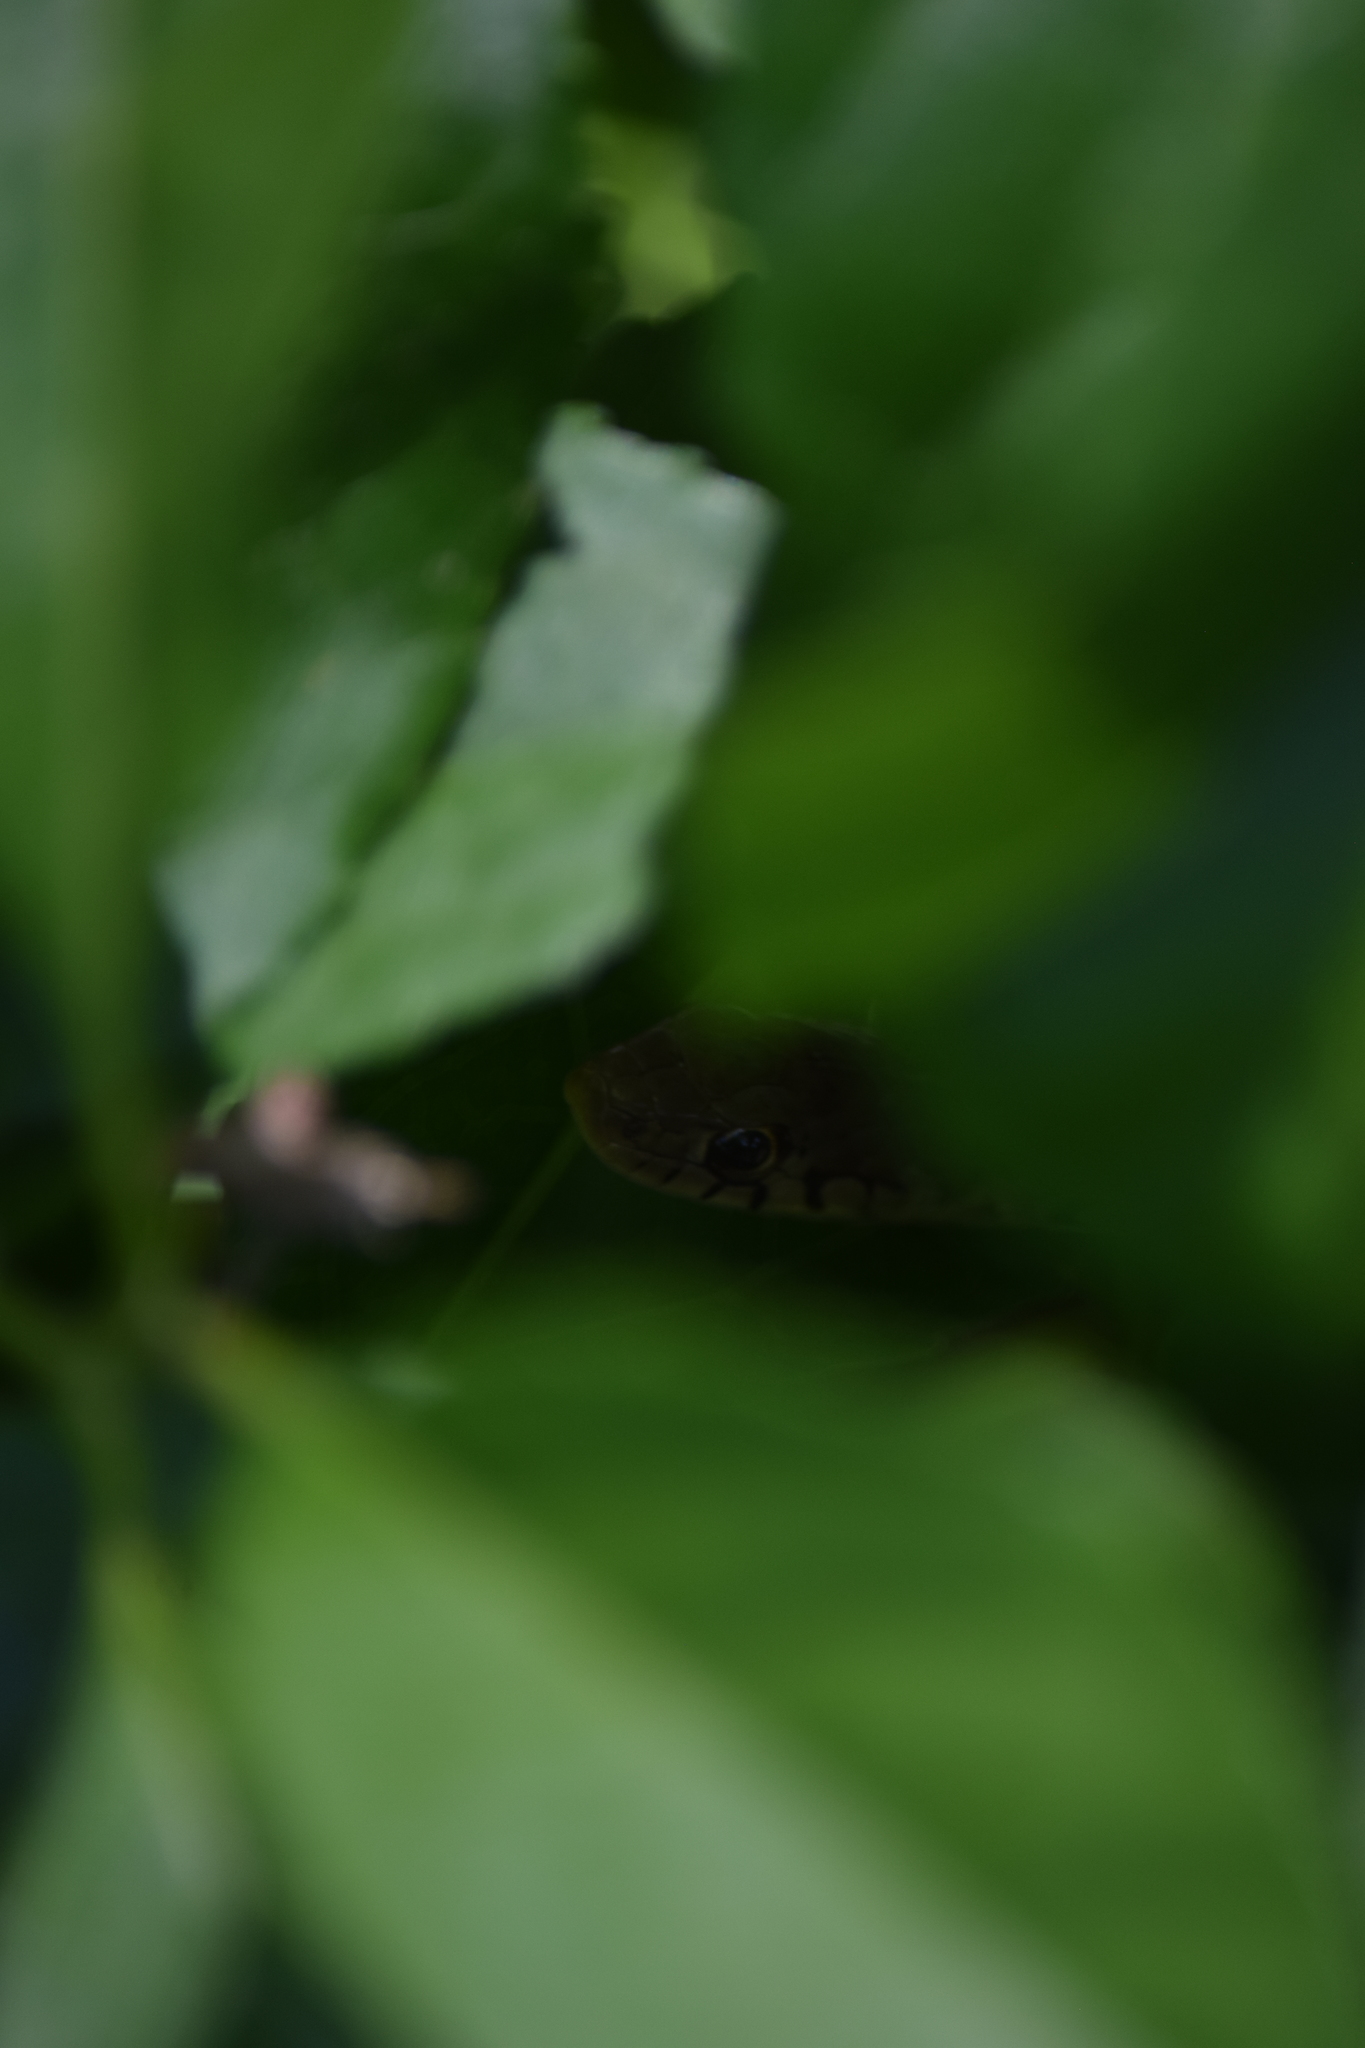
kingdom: Animalia
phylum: Chordata
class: Squamata
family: Colubridae
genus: Thamnophis
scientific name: Thamnophis sirtalis
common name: Common garter snake
